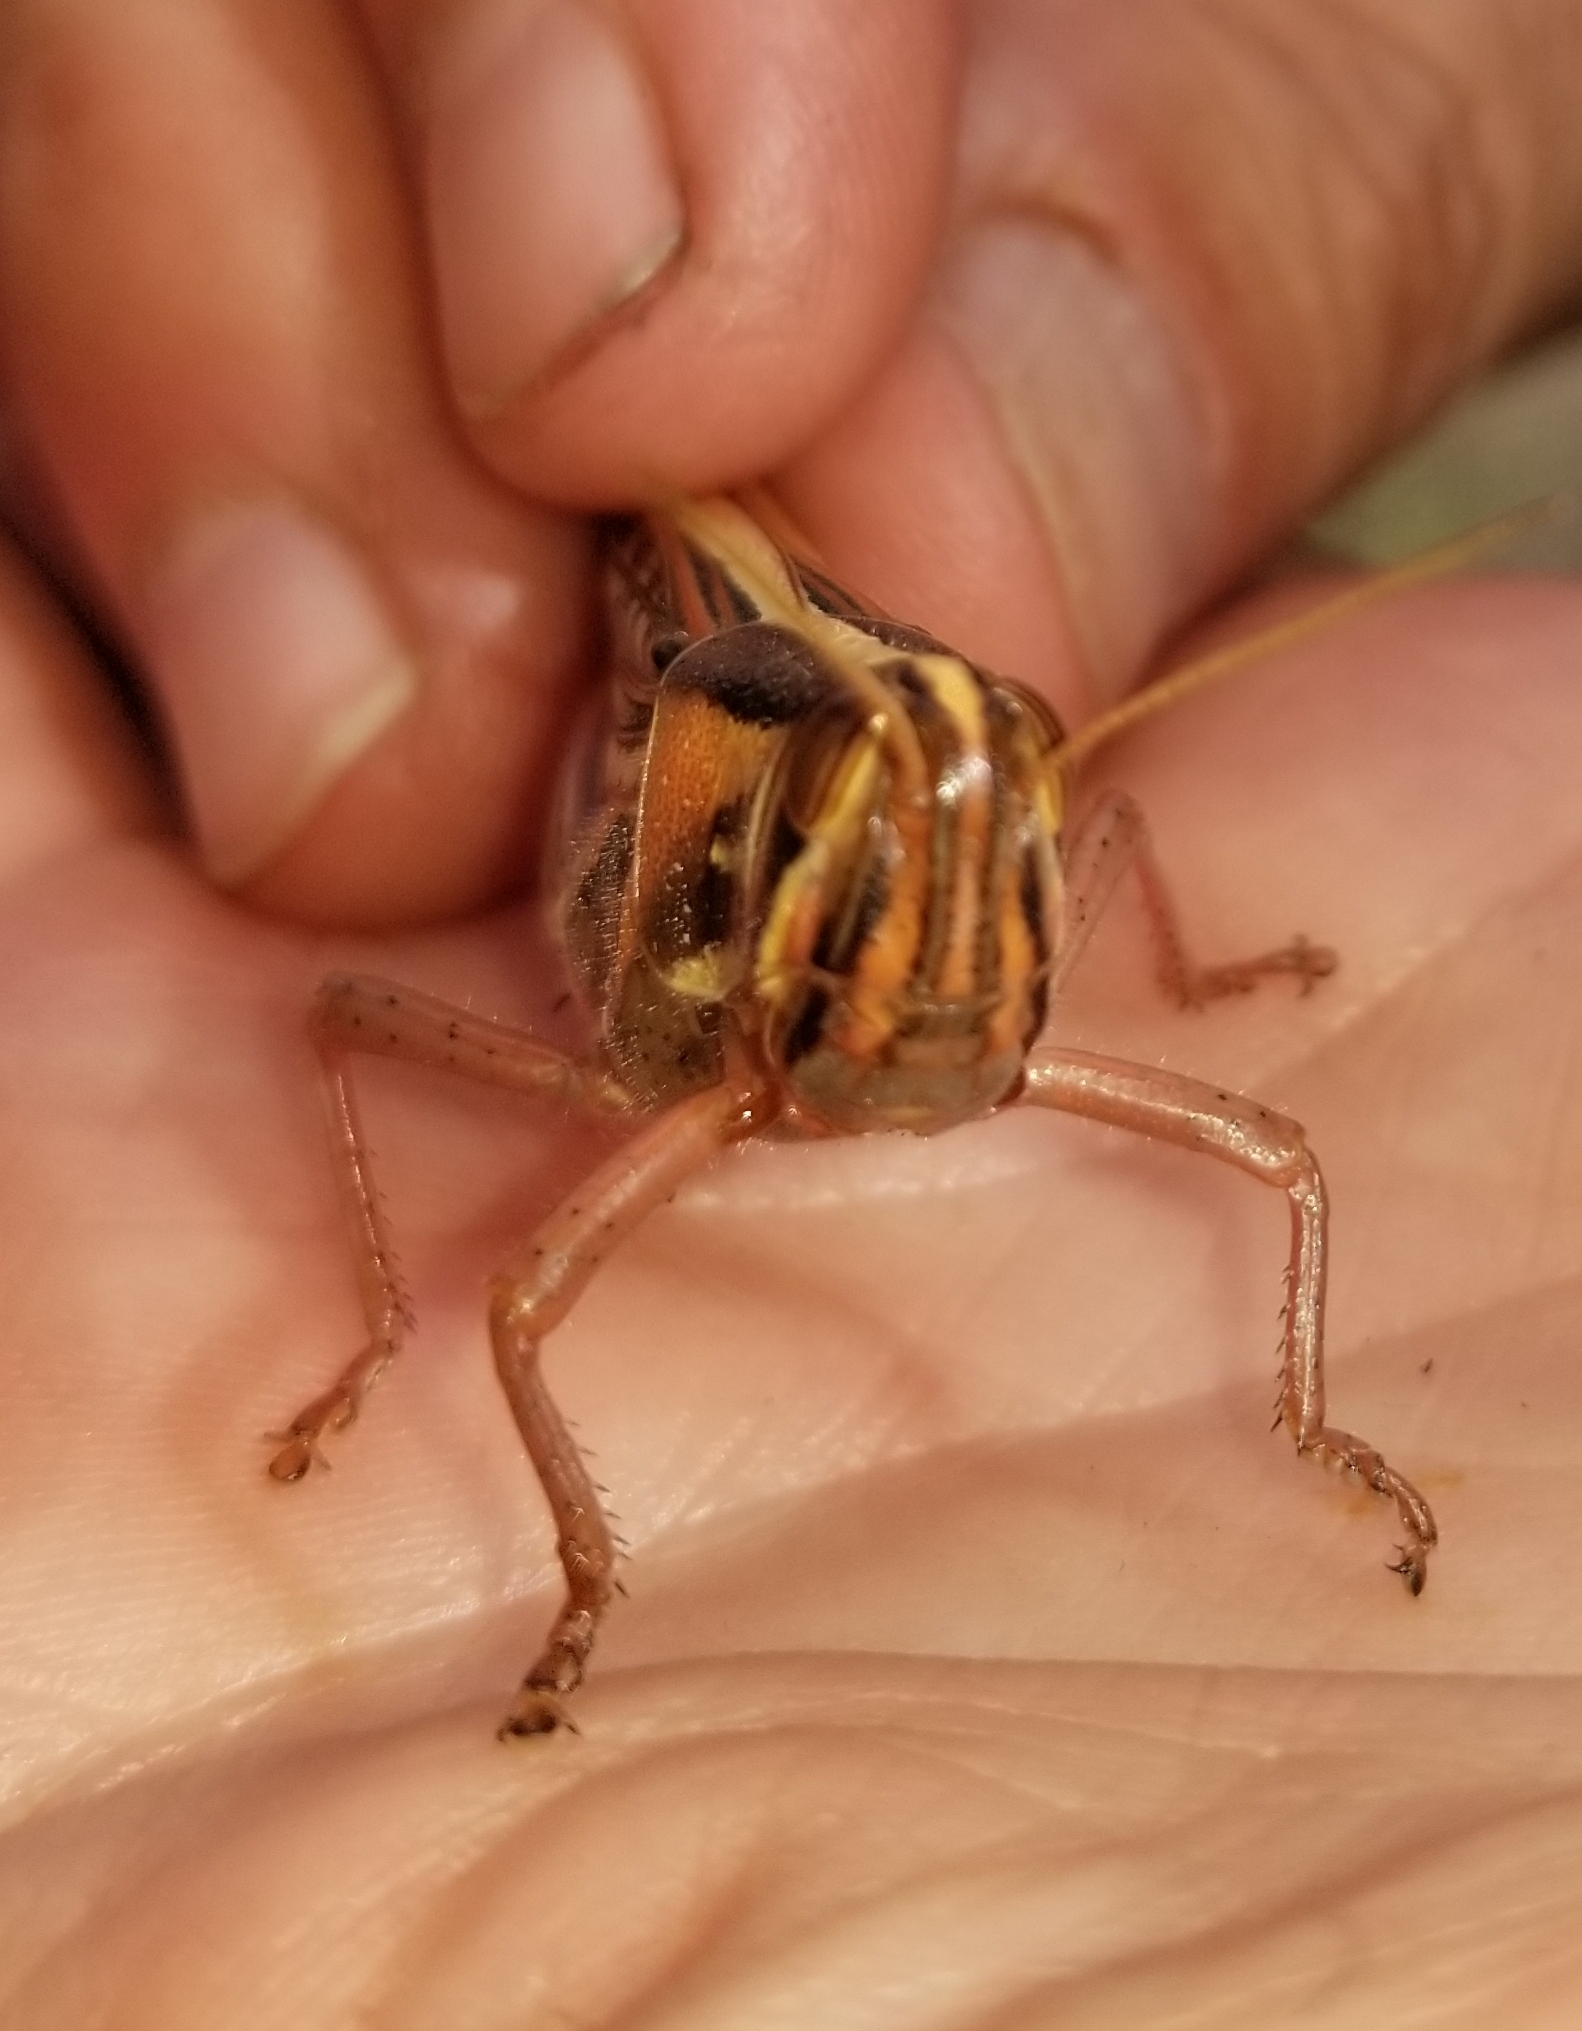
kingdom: Animalia
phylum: Arthropoda
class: Insecta
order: Orthoptera
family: Acrididae
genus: Schistocerca
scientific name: Schistocerca americana
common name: American bird locust
